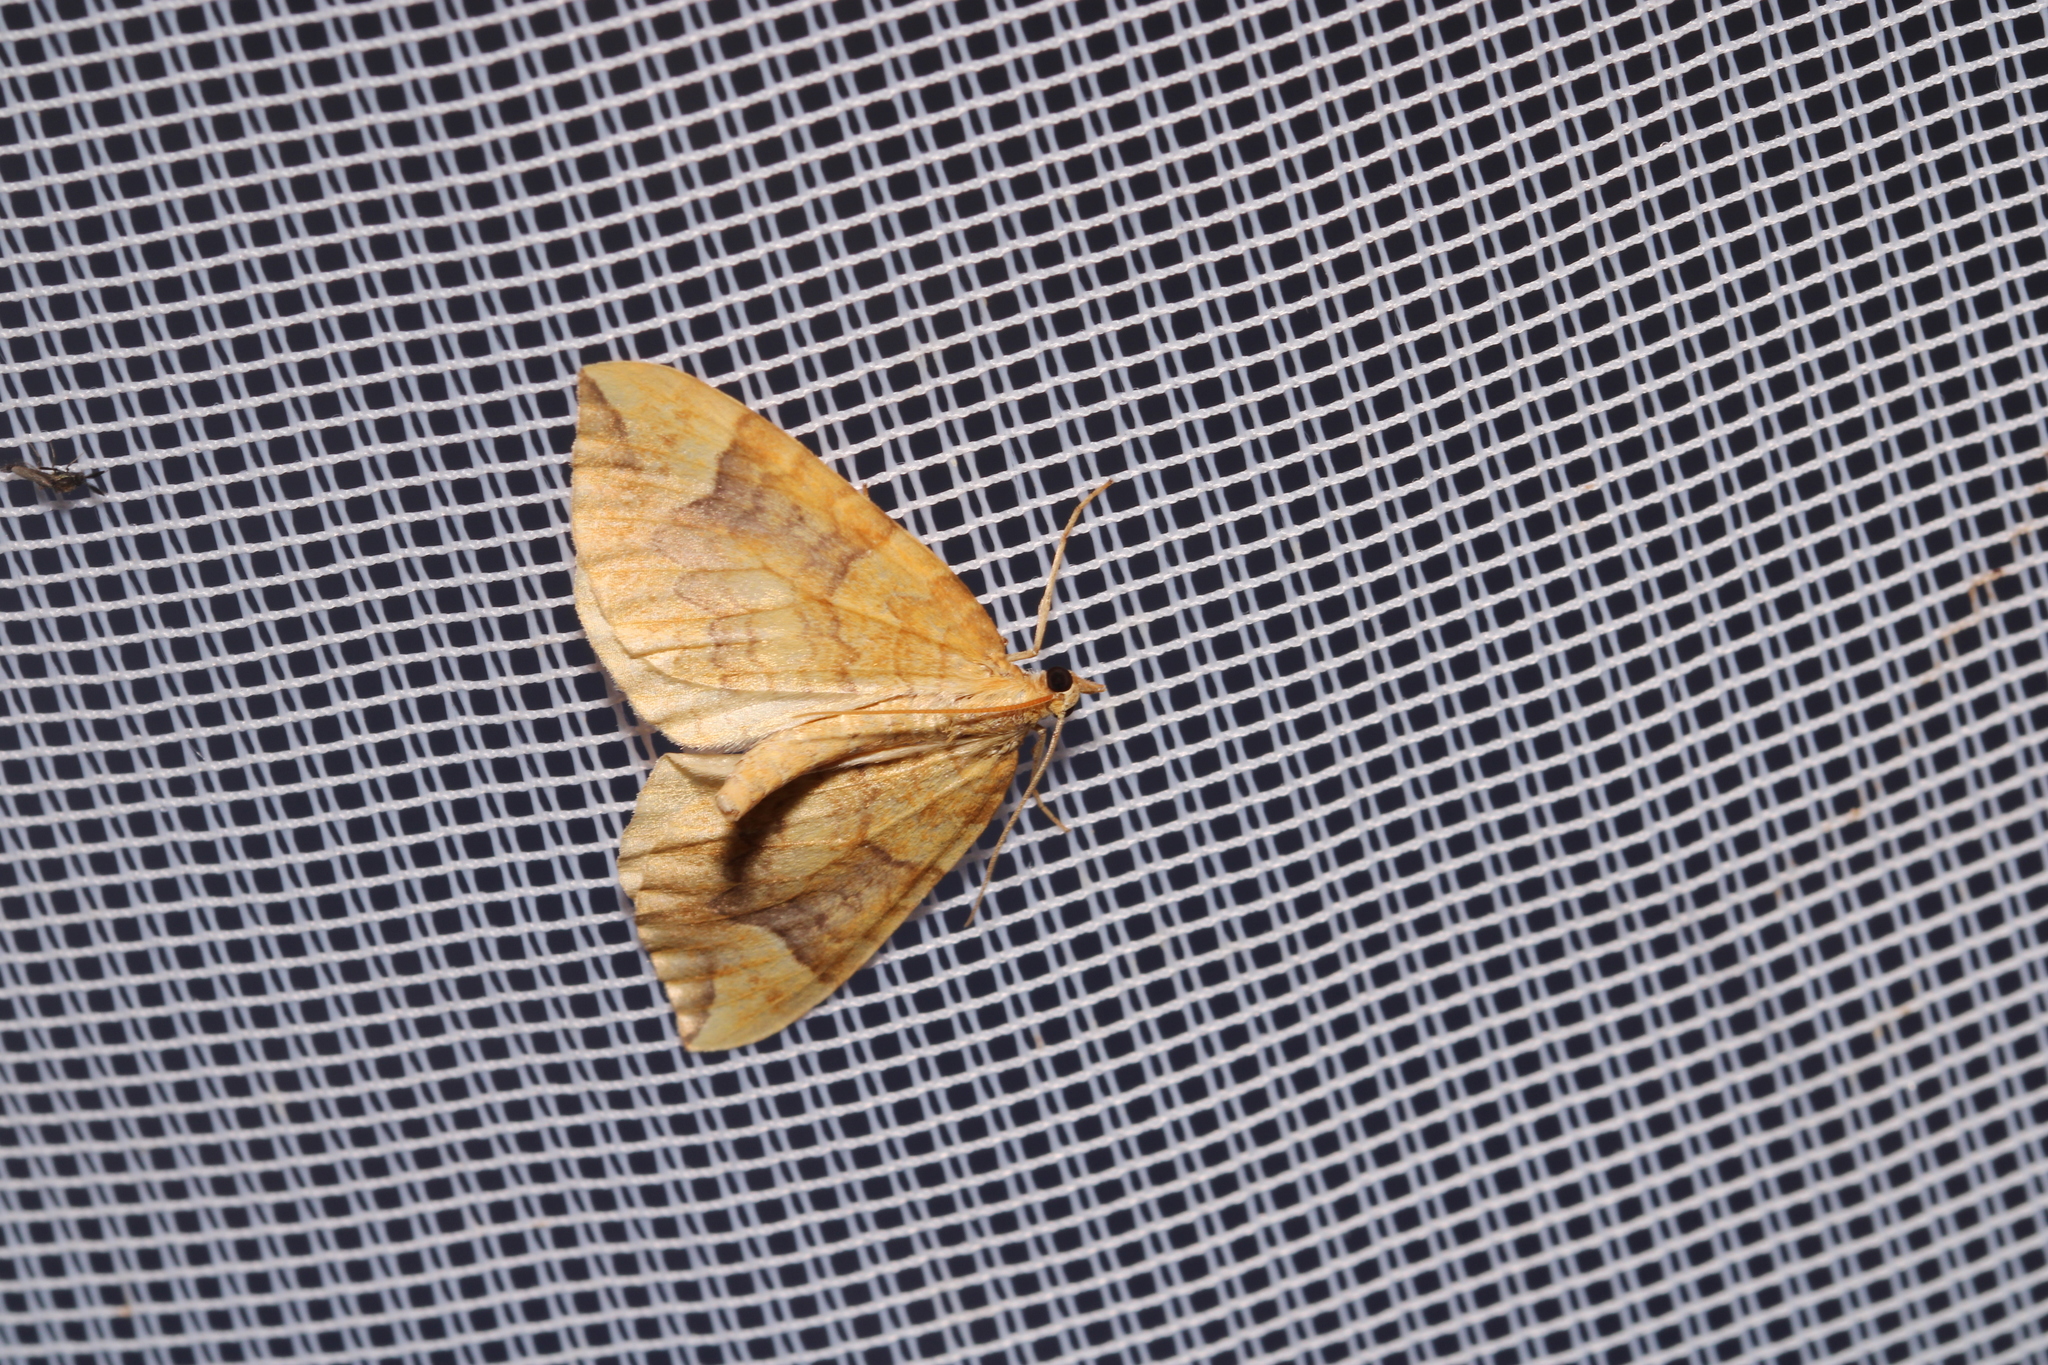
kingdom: Animalia
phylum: Arthropoda
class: Insecta
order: Lepidoptera
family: Geometridae
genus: Eulithis
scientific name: Eulithis populata
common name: Northern spinach
